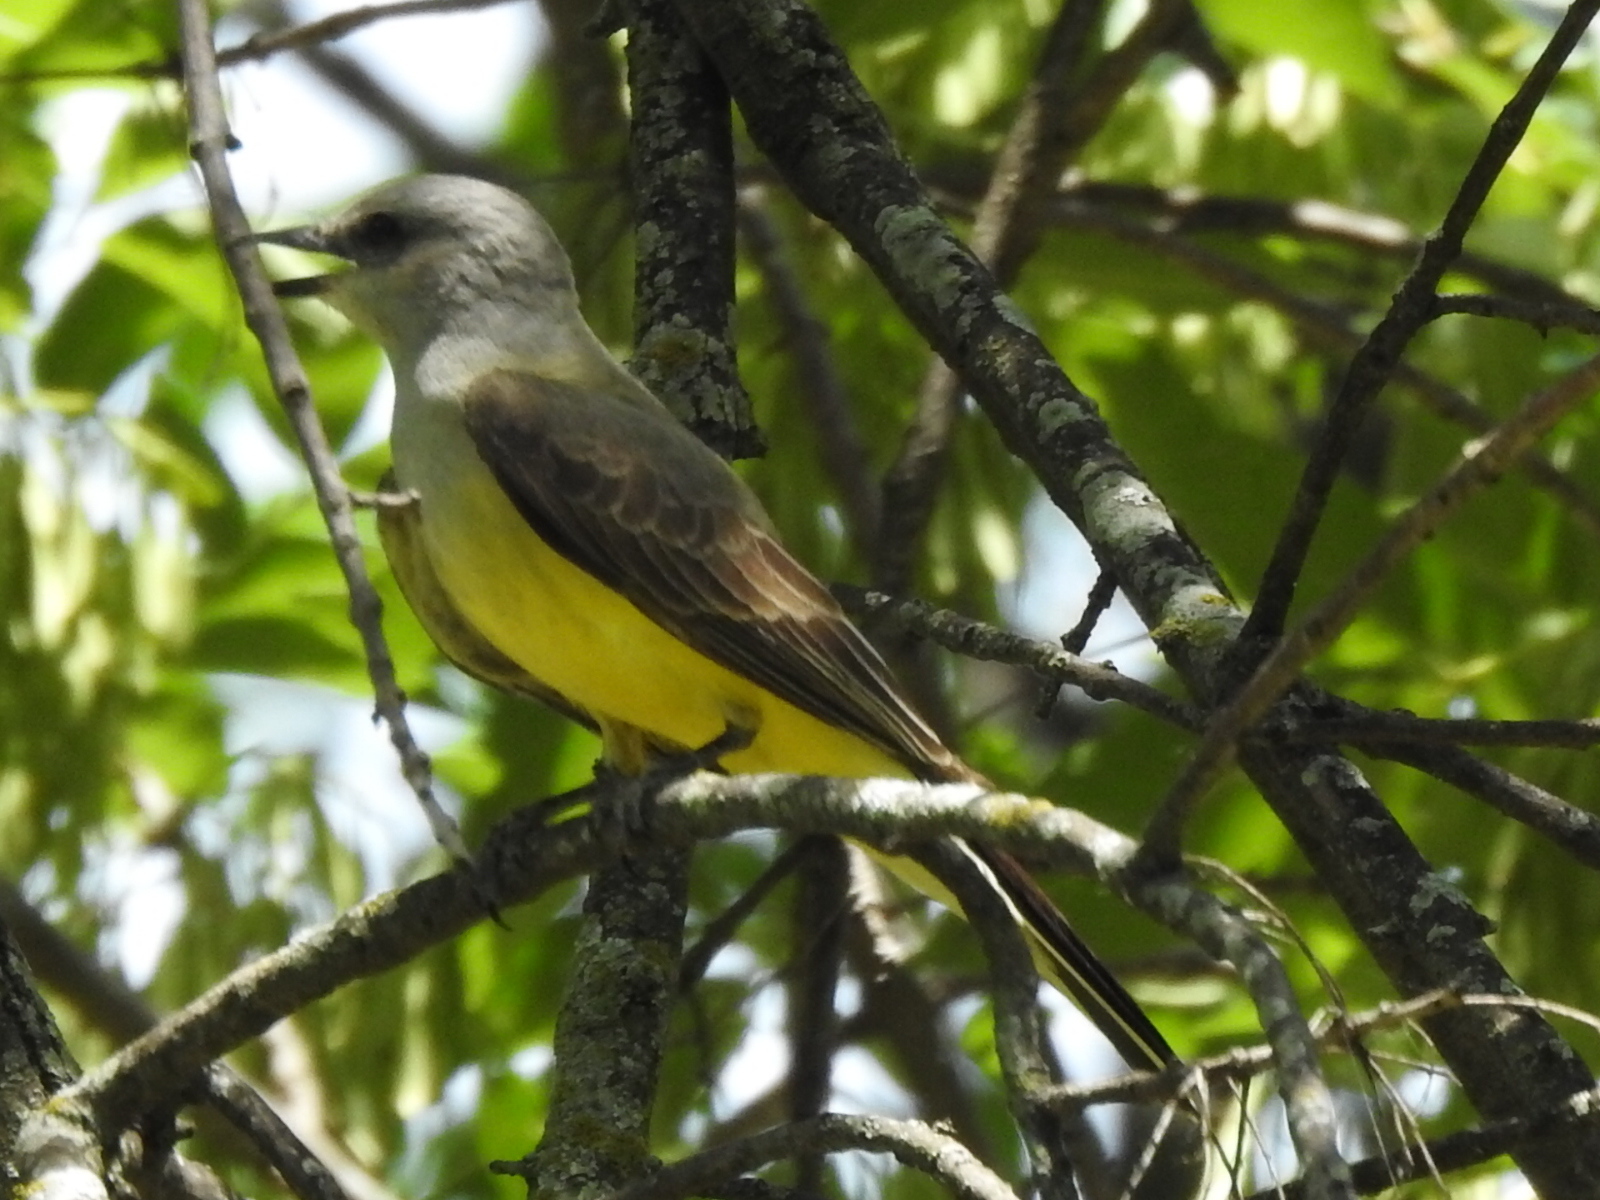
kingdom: Animalia
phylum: Chordata
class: Aves
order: Passeriformes
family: Tyrannidae
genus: Tyrannus
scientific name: Tyrannus verticalis
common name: Western kingbird
